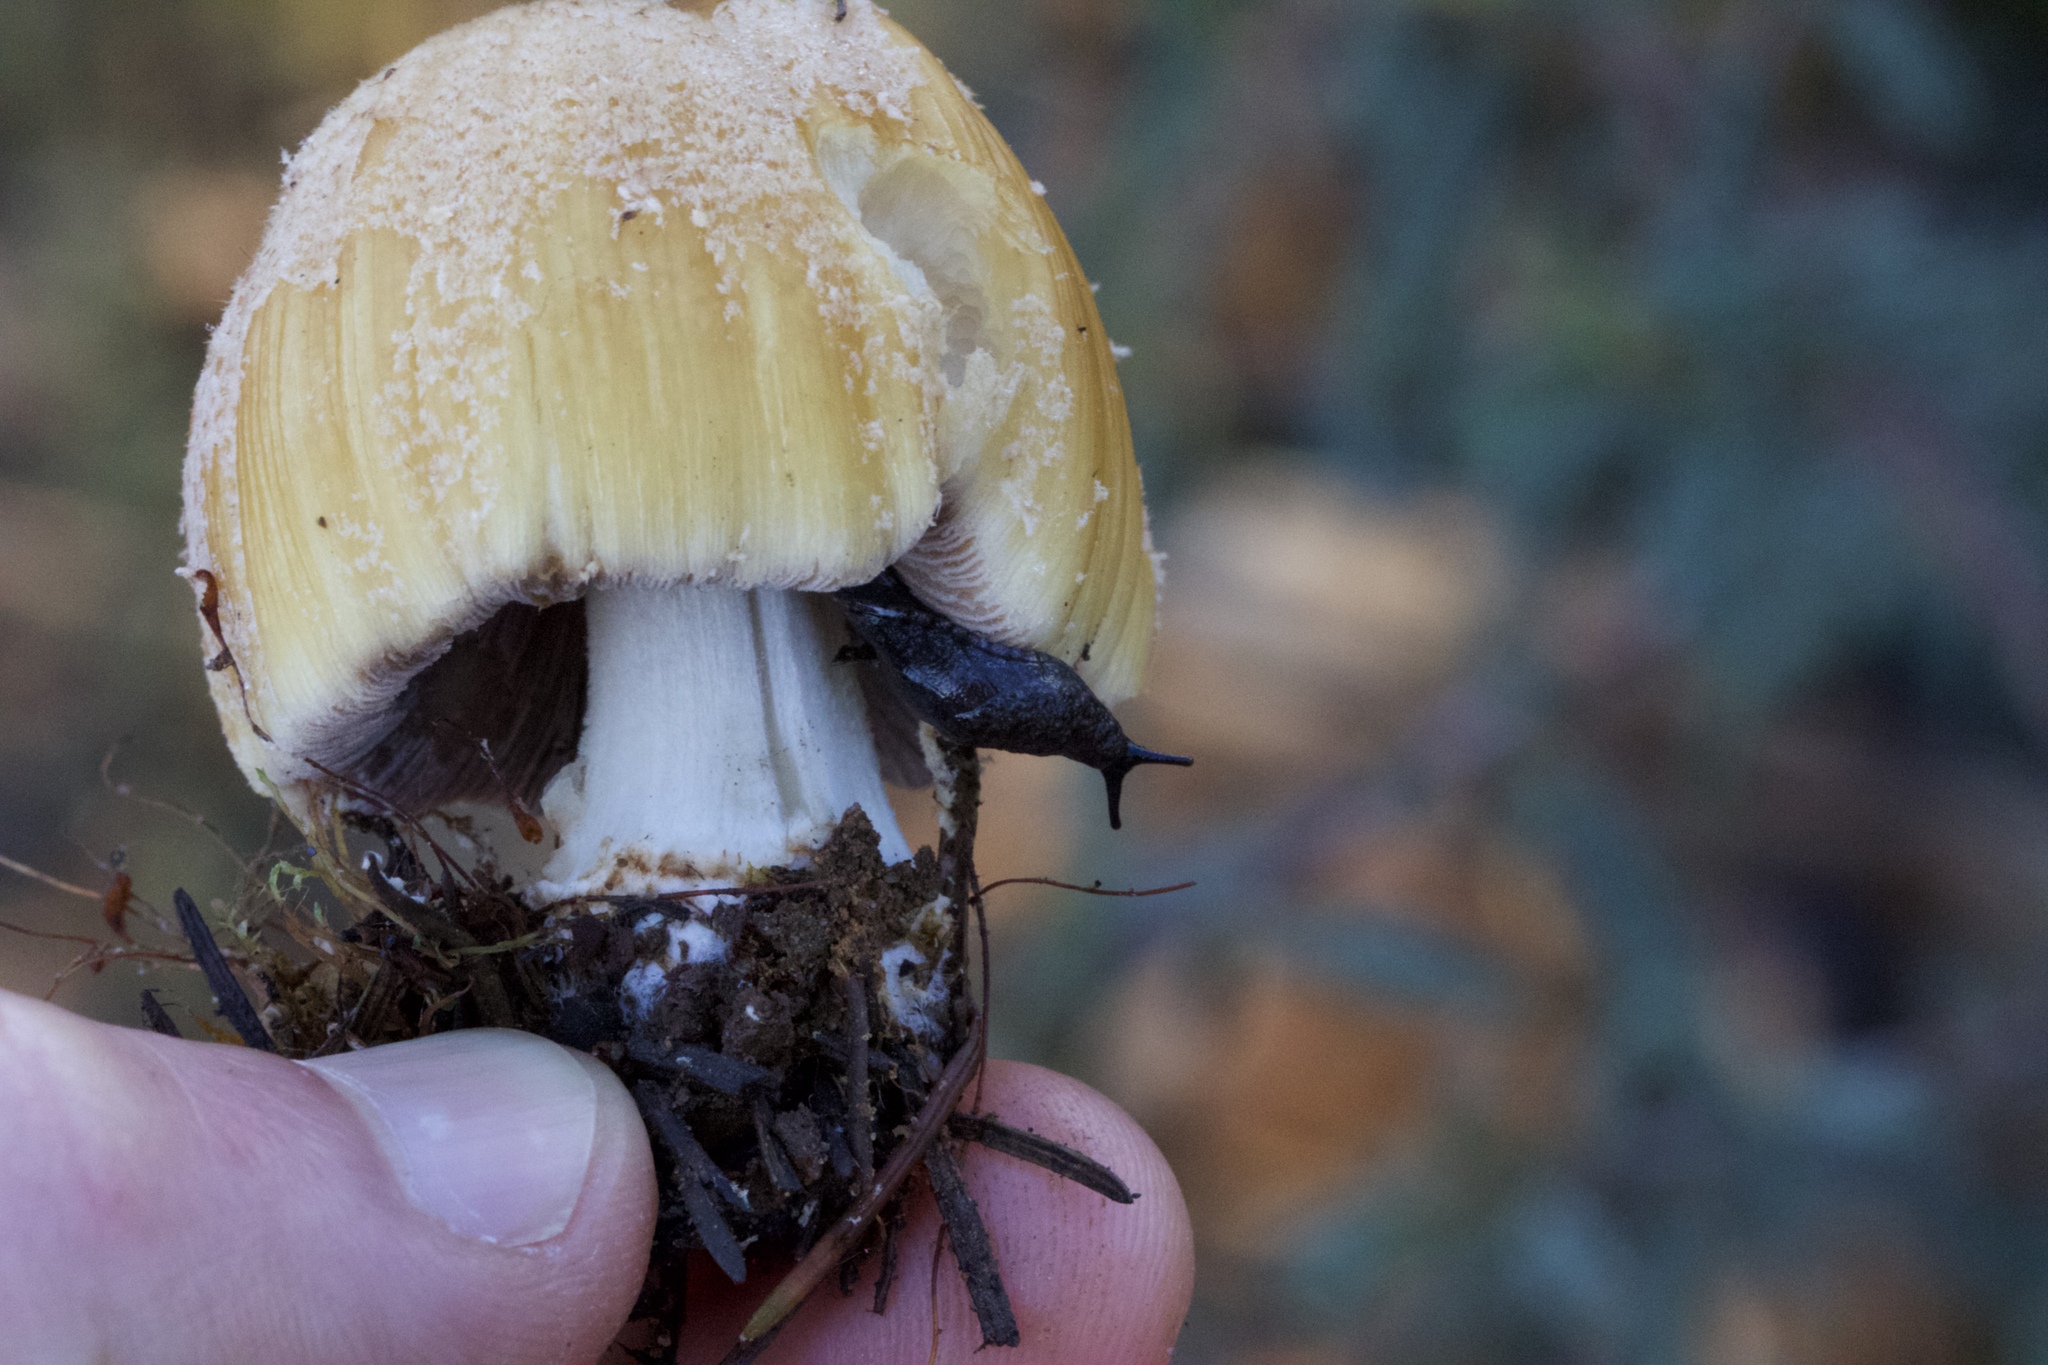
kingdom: Fungi
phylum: Basidiomycota
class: Agaricomycetes
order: Agaricales
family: Psathyrellaceae
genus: Coprinellus
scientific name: Coprinellus bipellis
